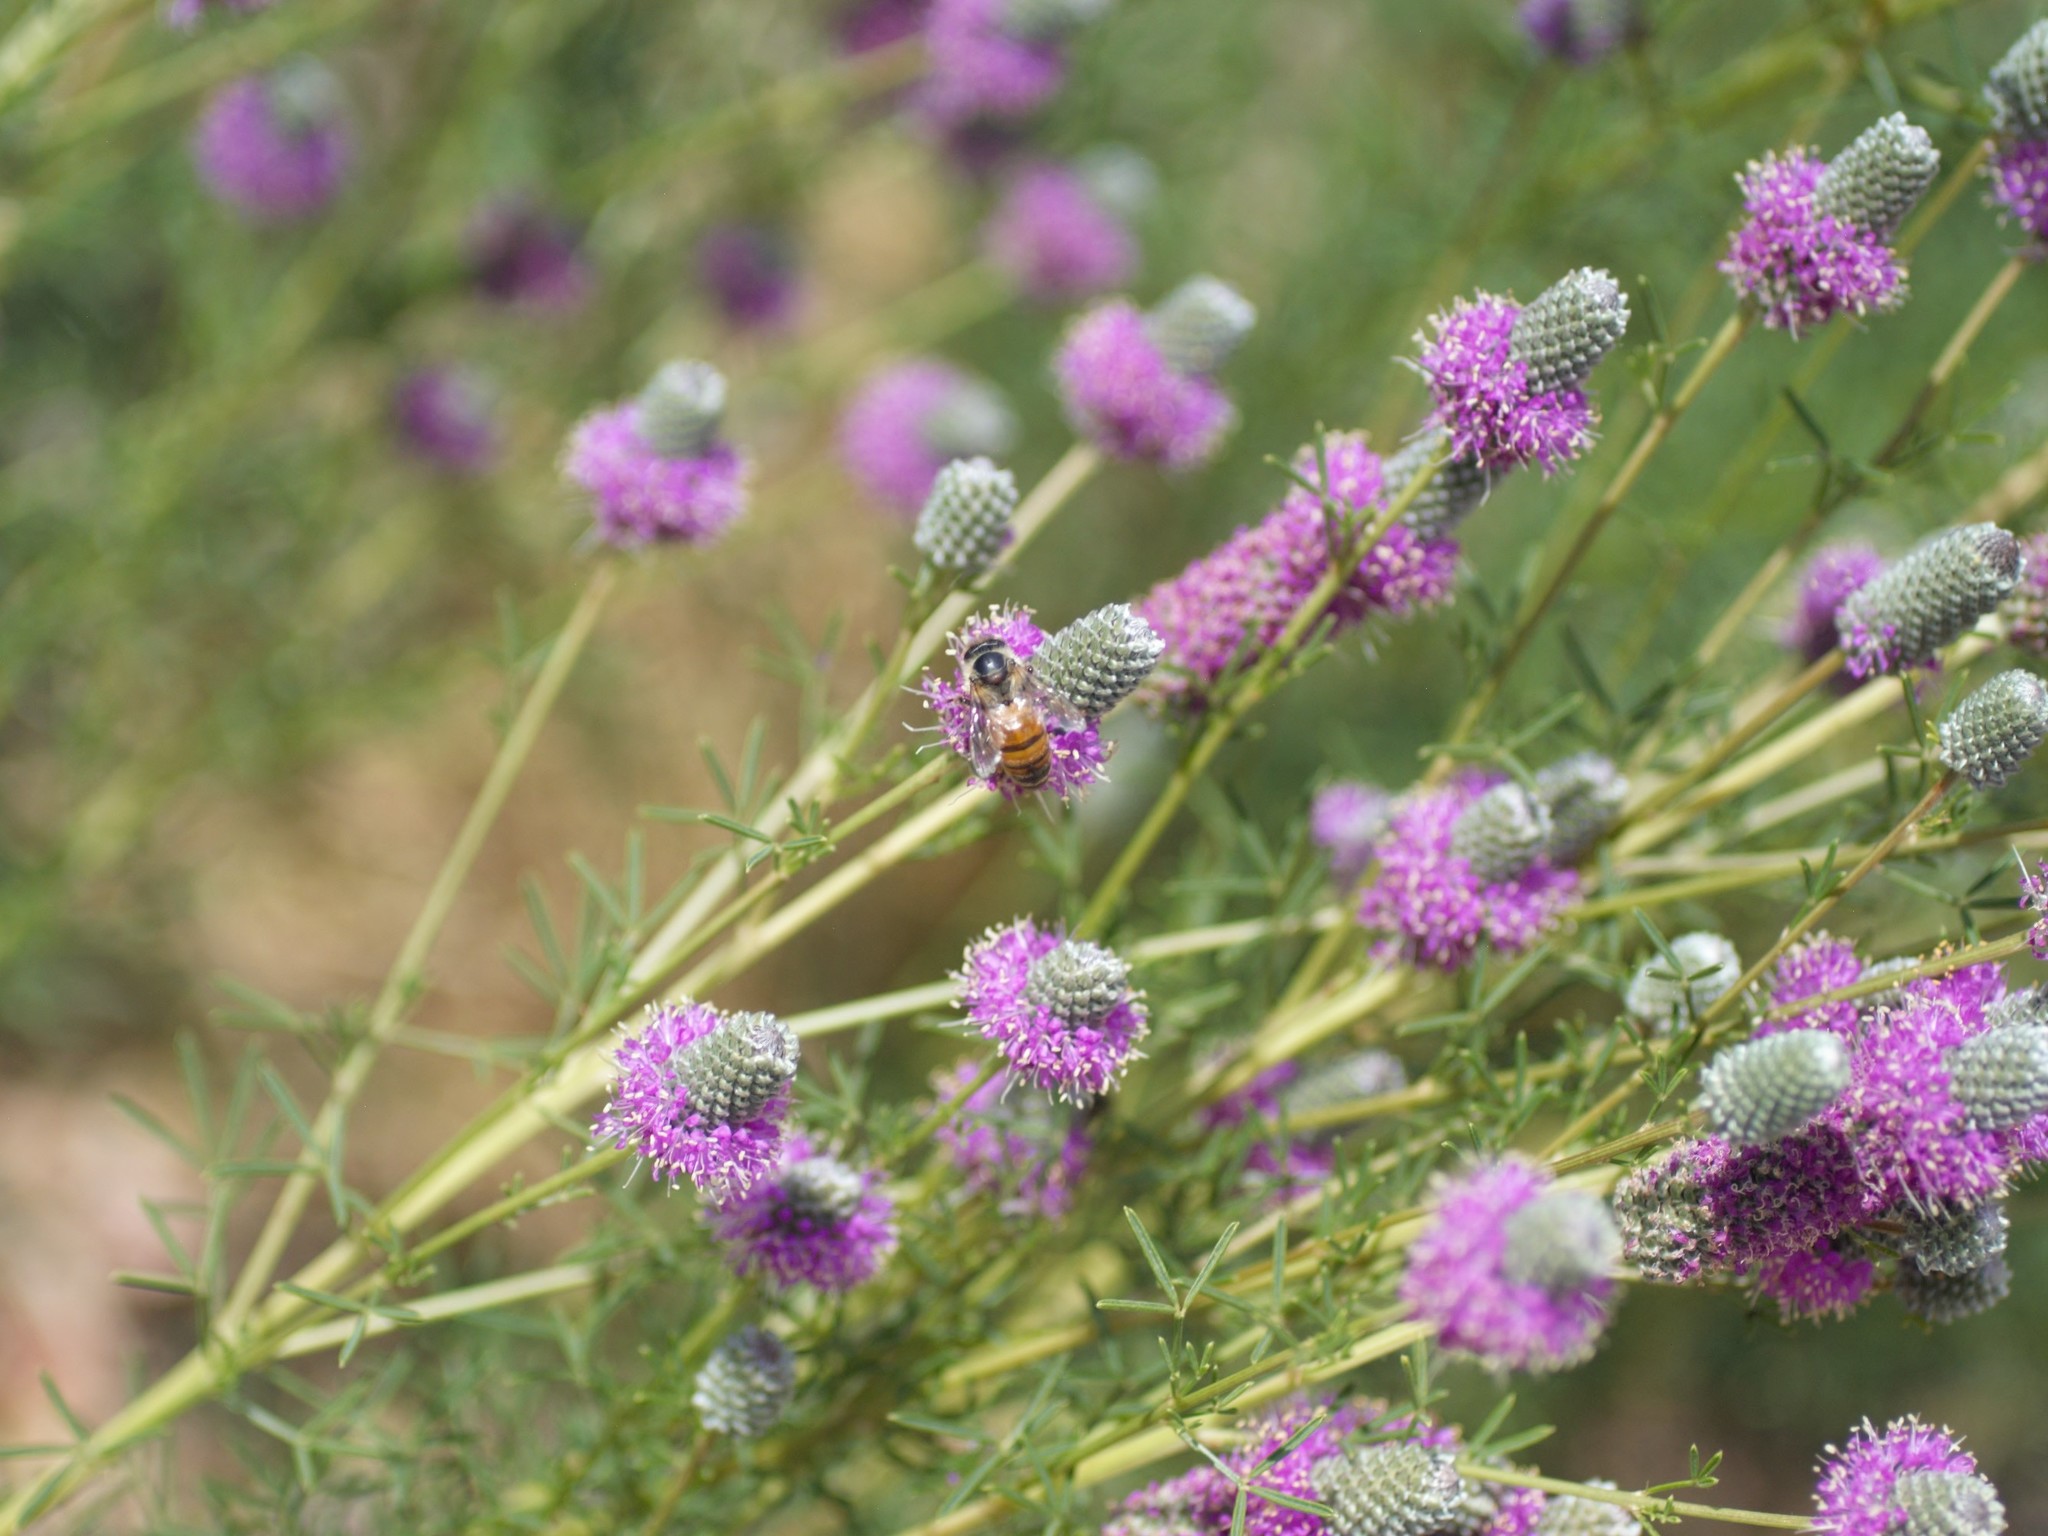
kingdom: Animalia
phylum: Arthropoda
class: Insecta
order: Hymenoptera
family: Apidae
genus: Apis
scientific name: Apis mellifera
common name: Honey bee
